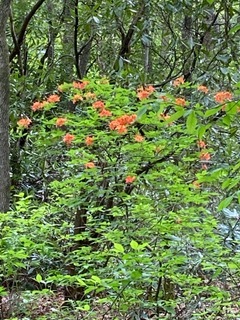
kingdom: Plantae
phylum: Tracheophyta
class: Magnoliopsida
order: Ericales
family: Ericaceae
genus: Rhododendron
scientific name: Rhododendron calendulaceum
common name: Flame azalea
